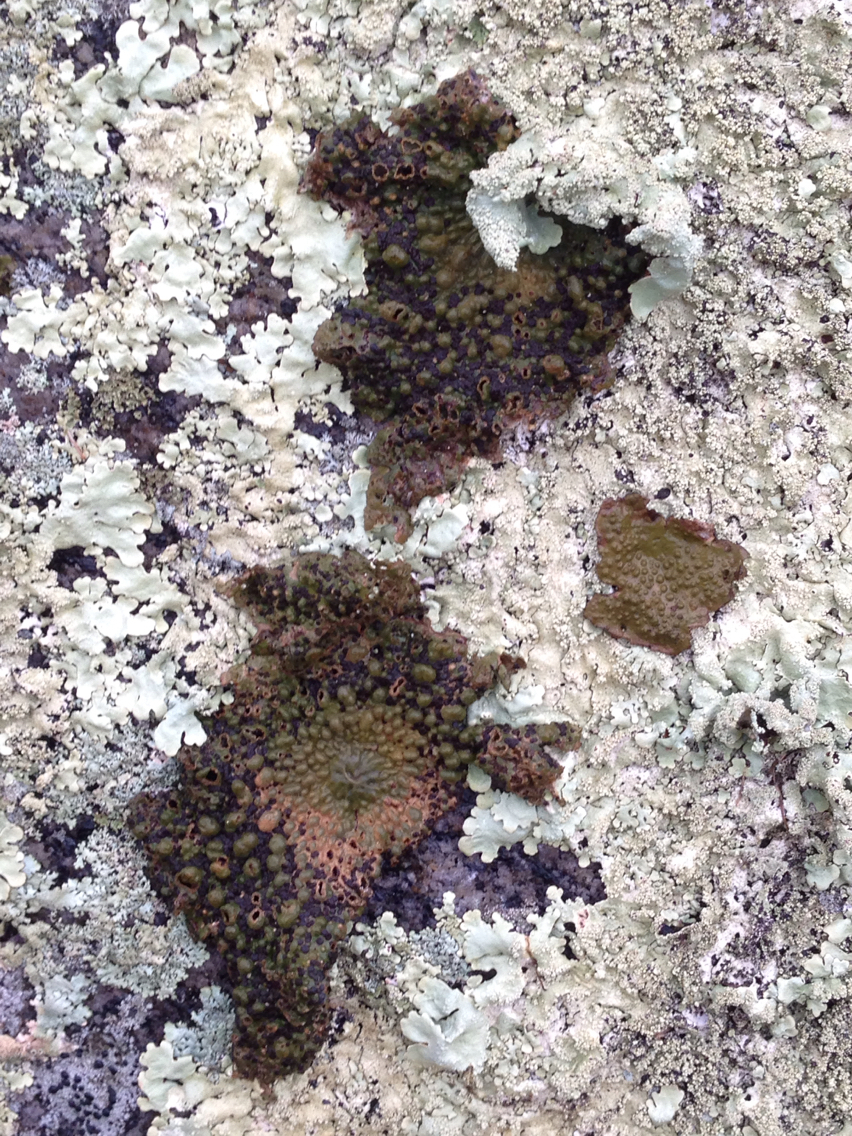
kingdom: Fungi
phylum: Ascomycota
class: Lecanoromycetes
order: Umbilicariales
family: Umbilicariaceae
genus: Lasallia
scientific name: Lasallia papulosa
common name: Common toadskin lichen
